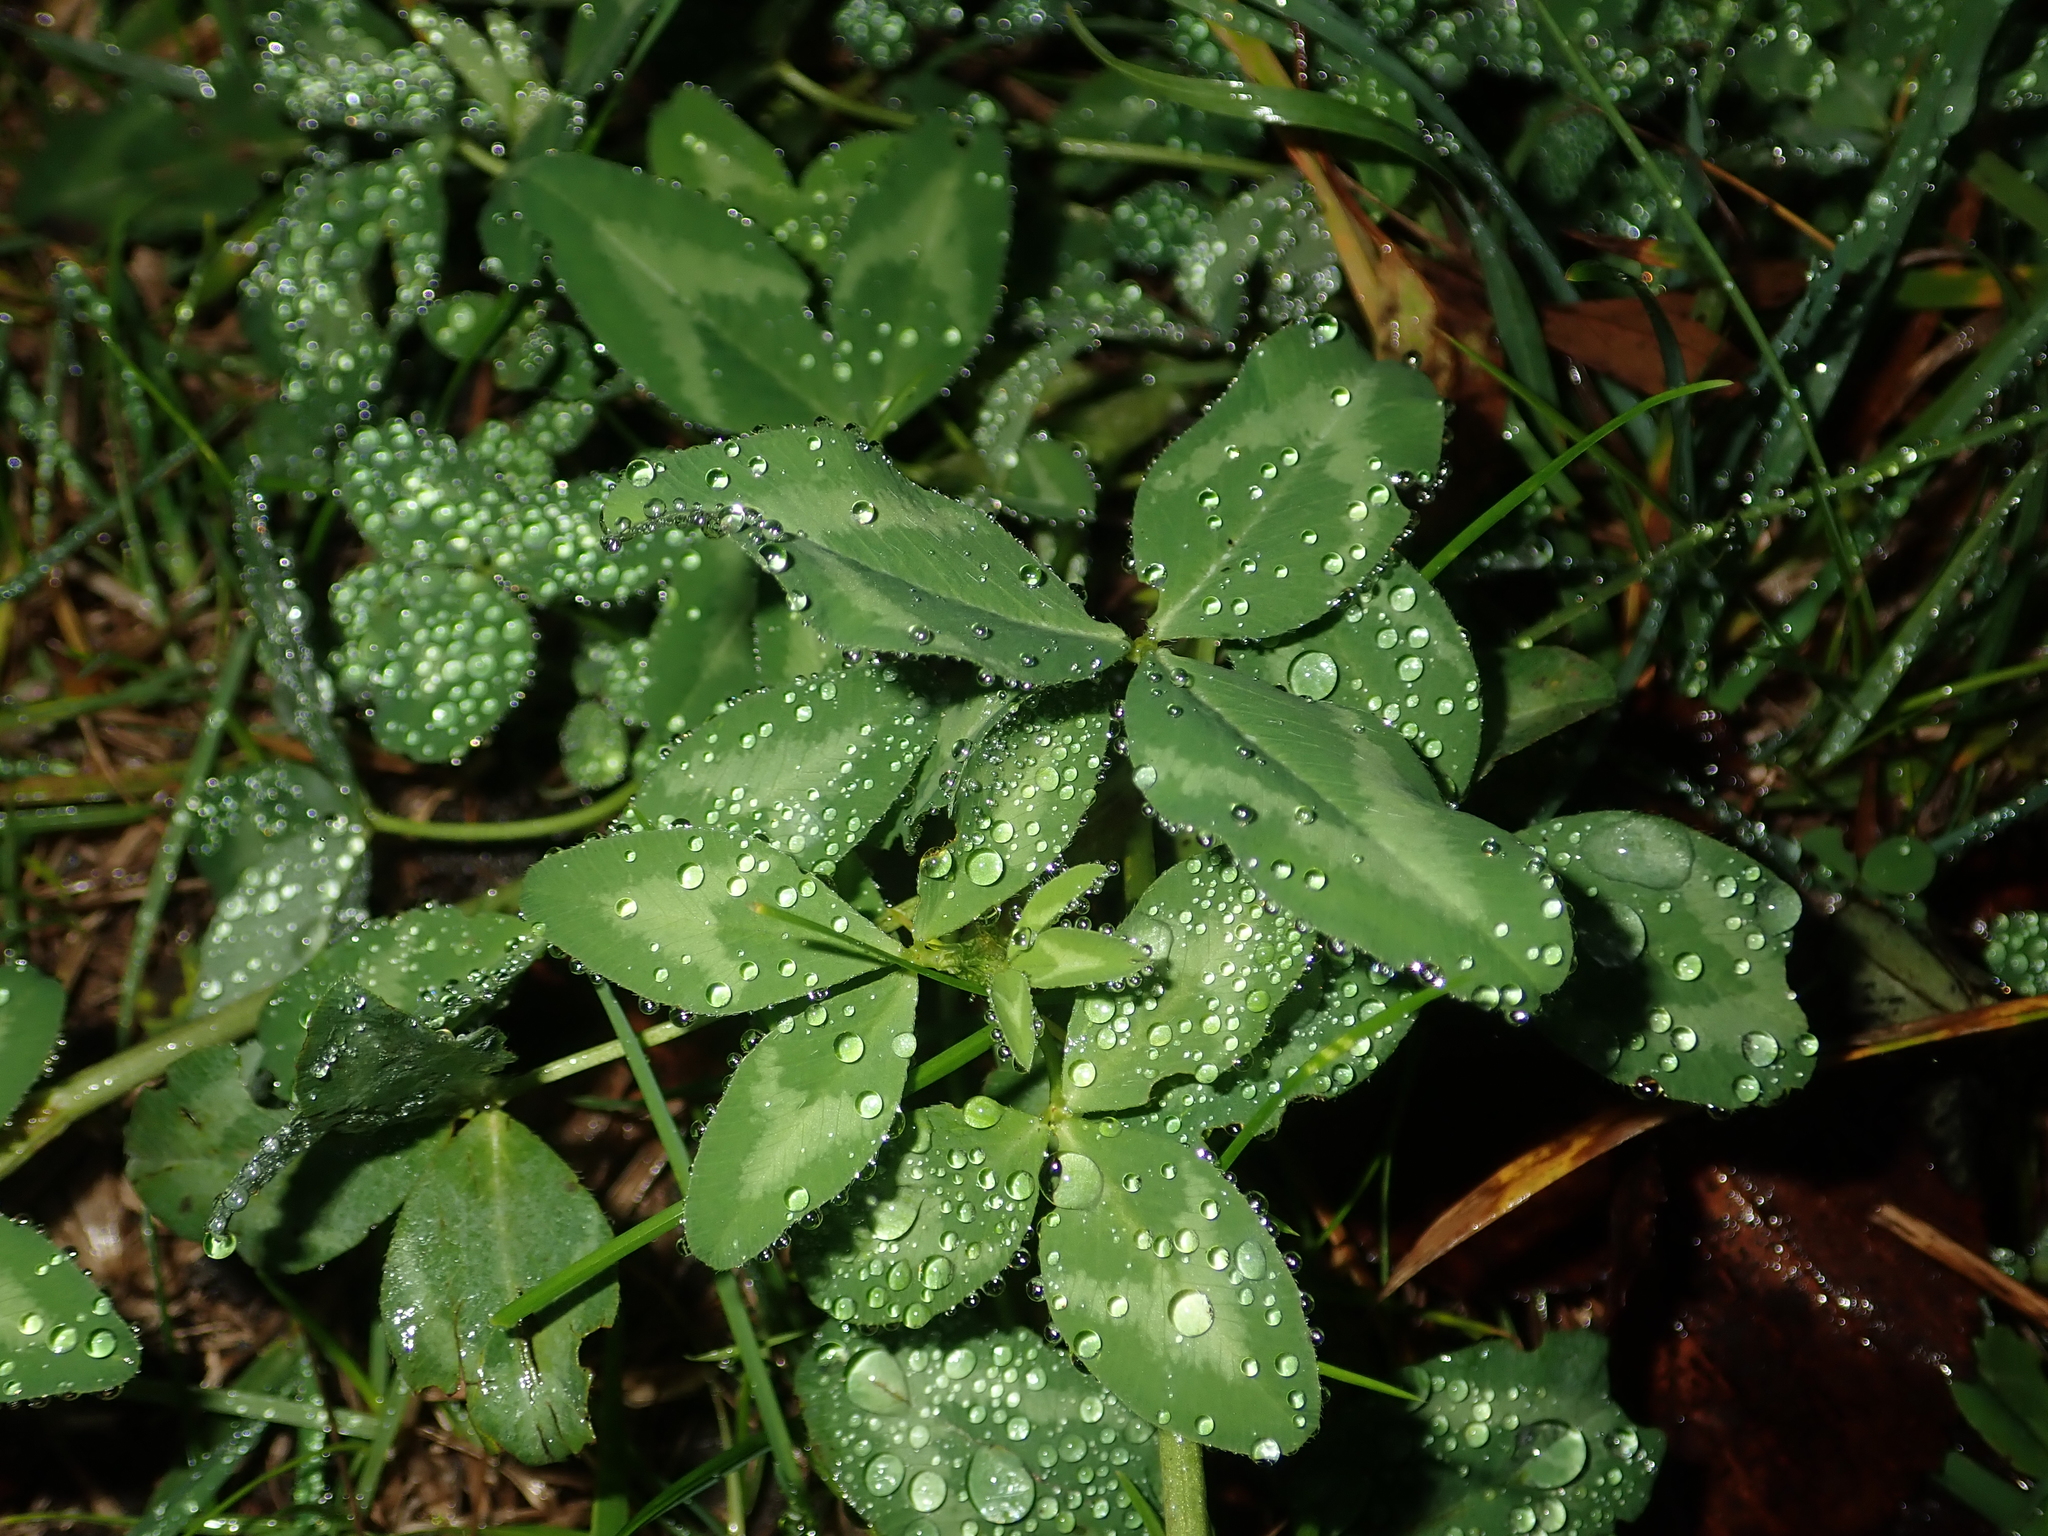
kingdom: Plantae
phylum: Tracheophyta
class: Magnoliopsida
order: Fabales
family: Fabaceae
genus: Trifolium
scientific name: Trifolium pratense
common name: Red clover
